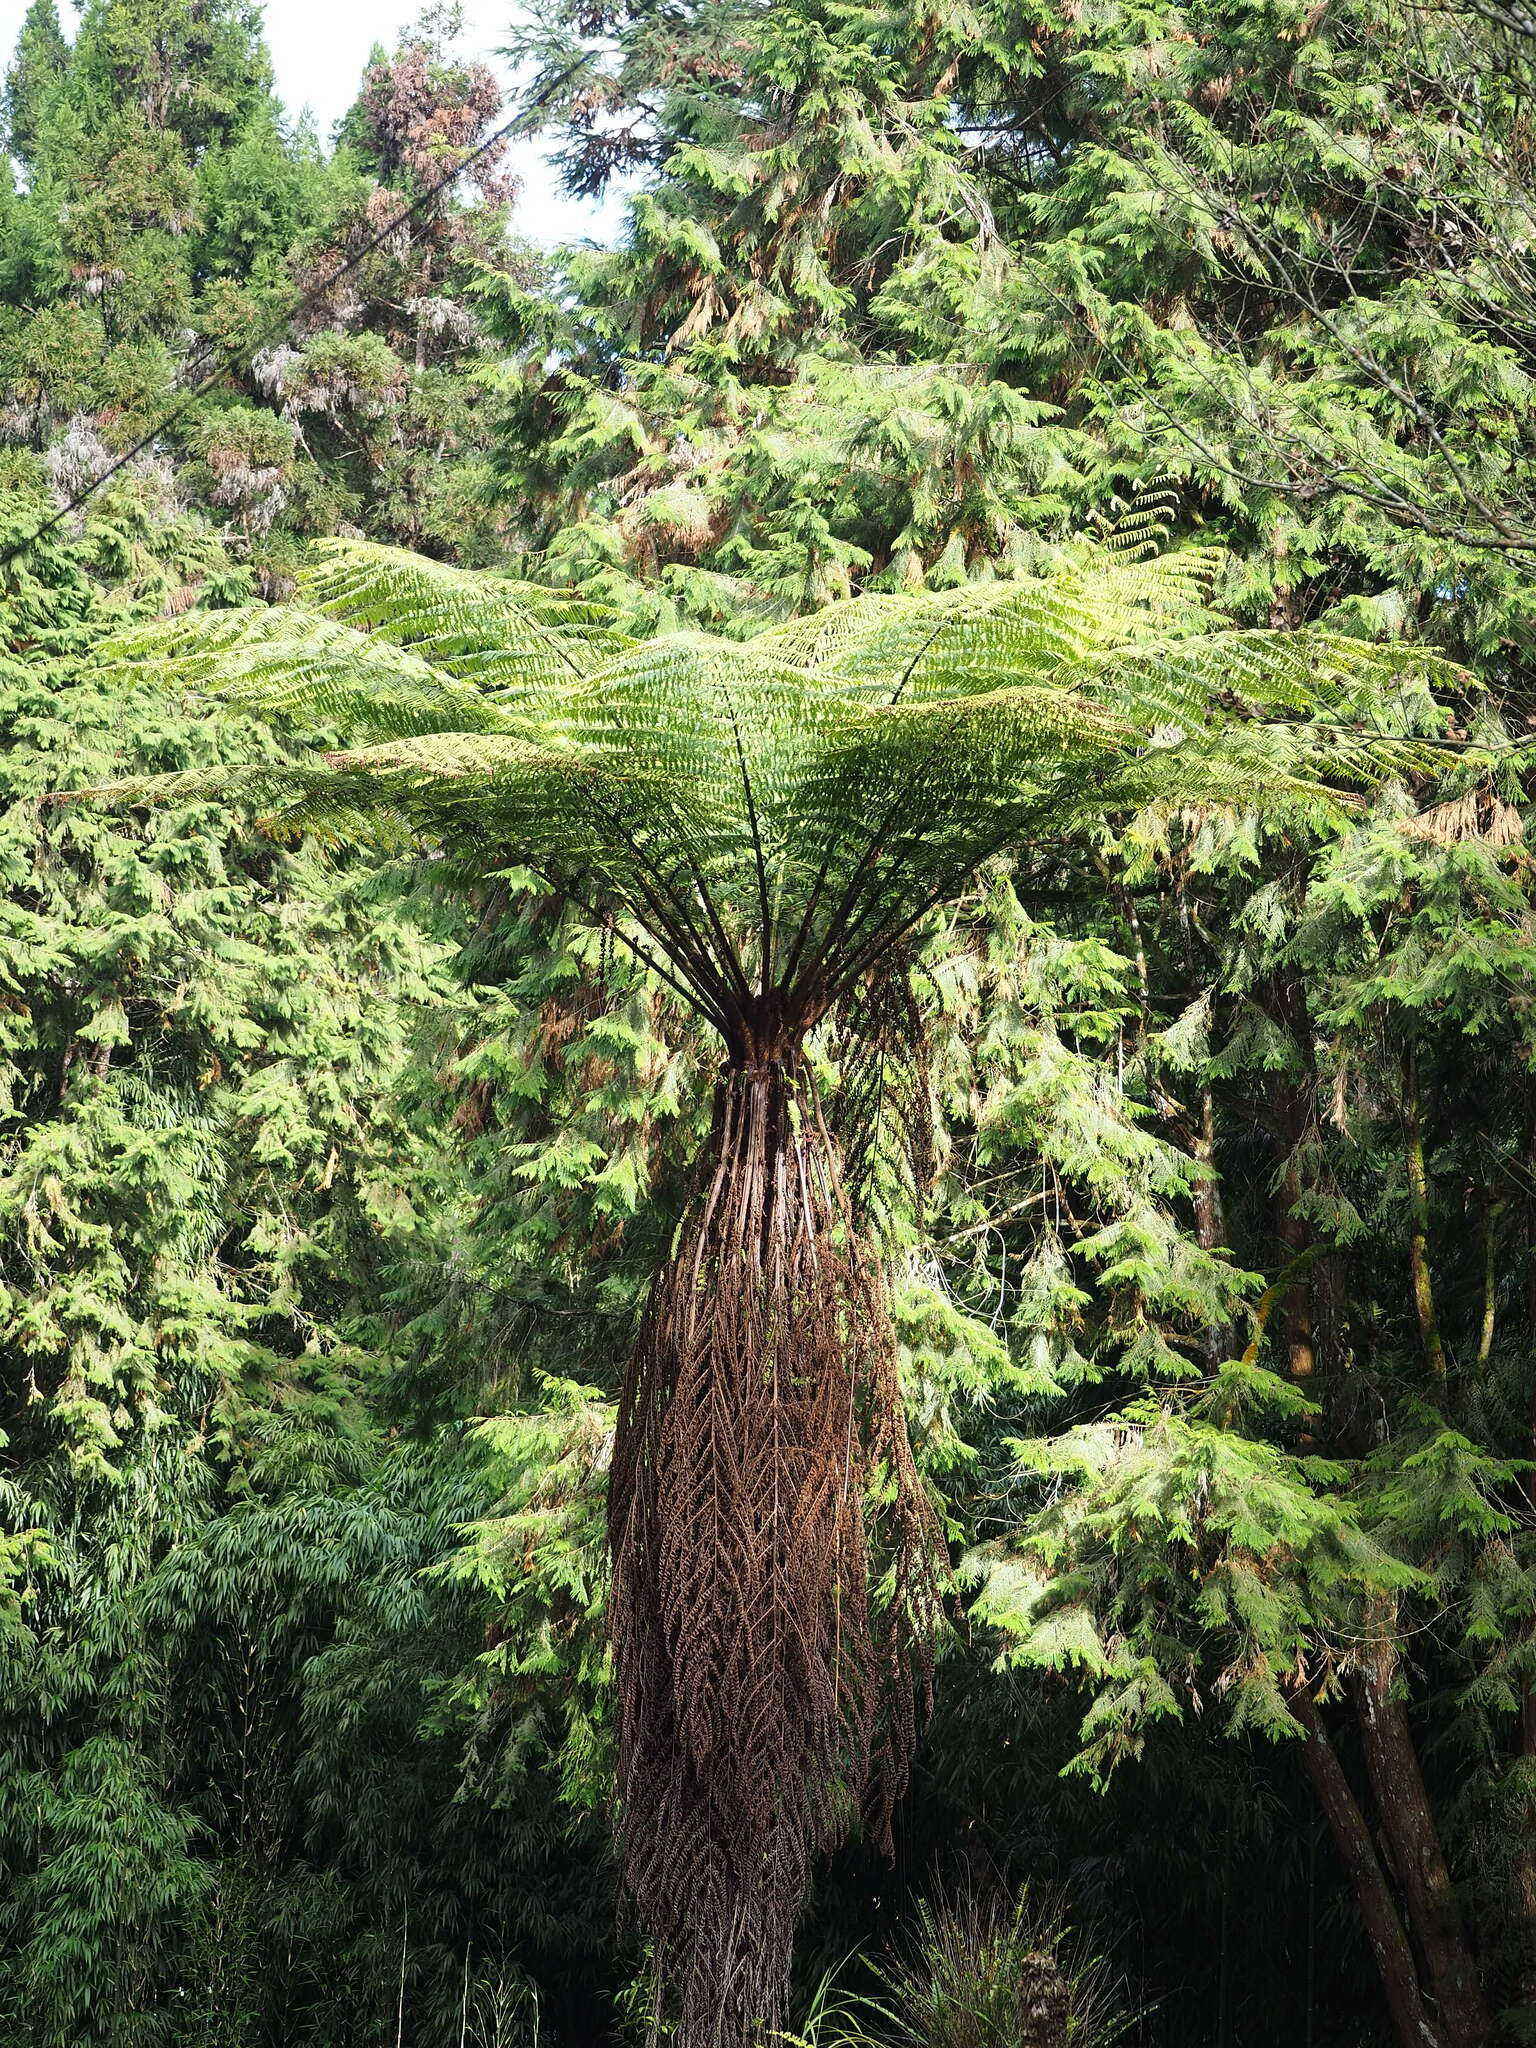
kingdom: Plantae
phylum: Tracheophyta
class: Polypodiopsida
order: Cyatheales
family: Cyatheaceae
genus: Alsophila
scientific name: Alsophila spinulosa
